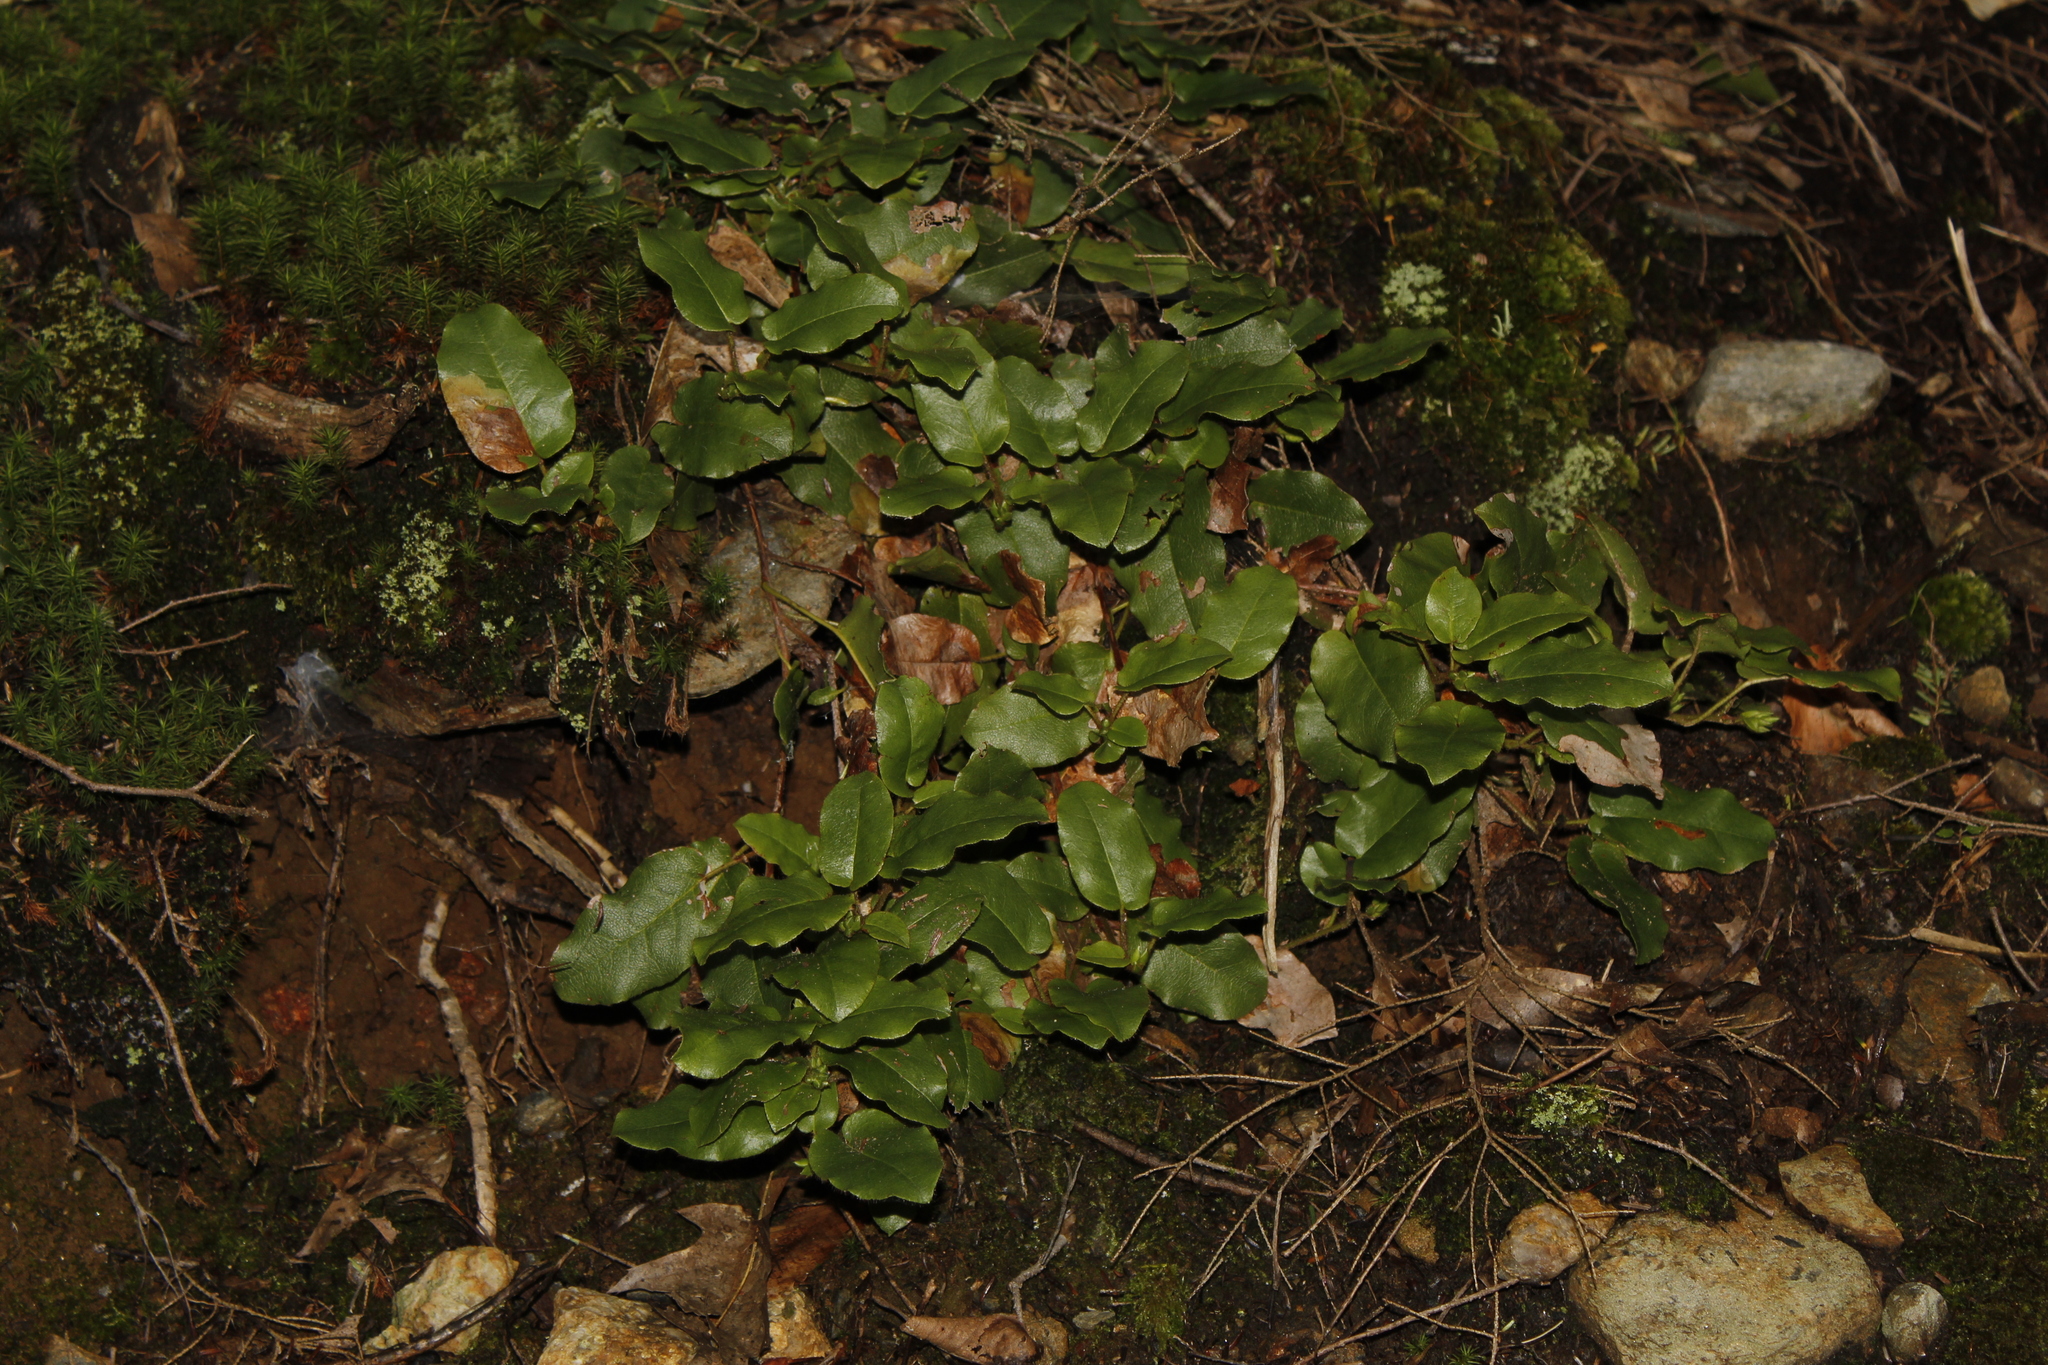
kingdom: Plantae
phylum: Tracheophyta
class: Magnoliopsida
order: Ericales
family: Ericaceae
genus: Epigaea
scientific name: Epigaea repens
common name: Gravelroot
